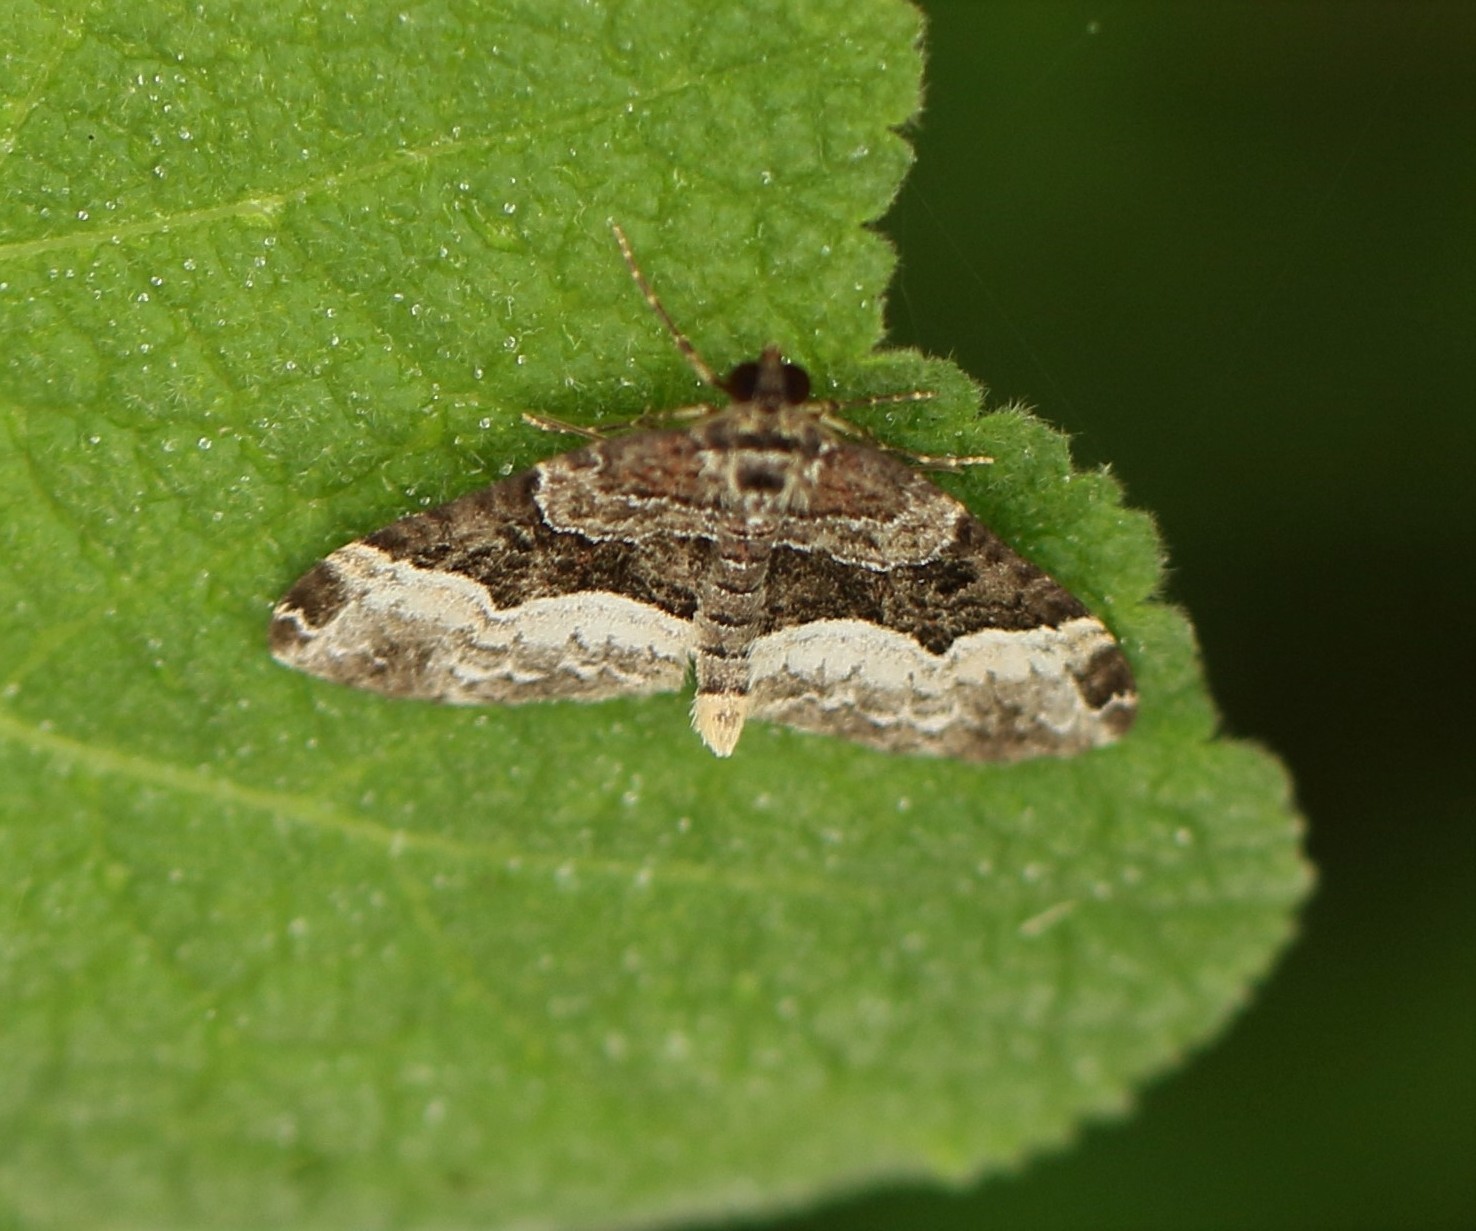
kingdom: Animalia
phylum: Arthropoda
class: Insecta
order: Lepidoptera
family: Geometridae
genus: Euphyia
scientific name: Euphyia intermediata
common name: Sharp-angled carpet
